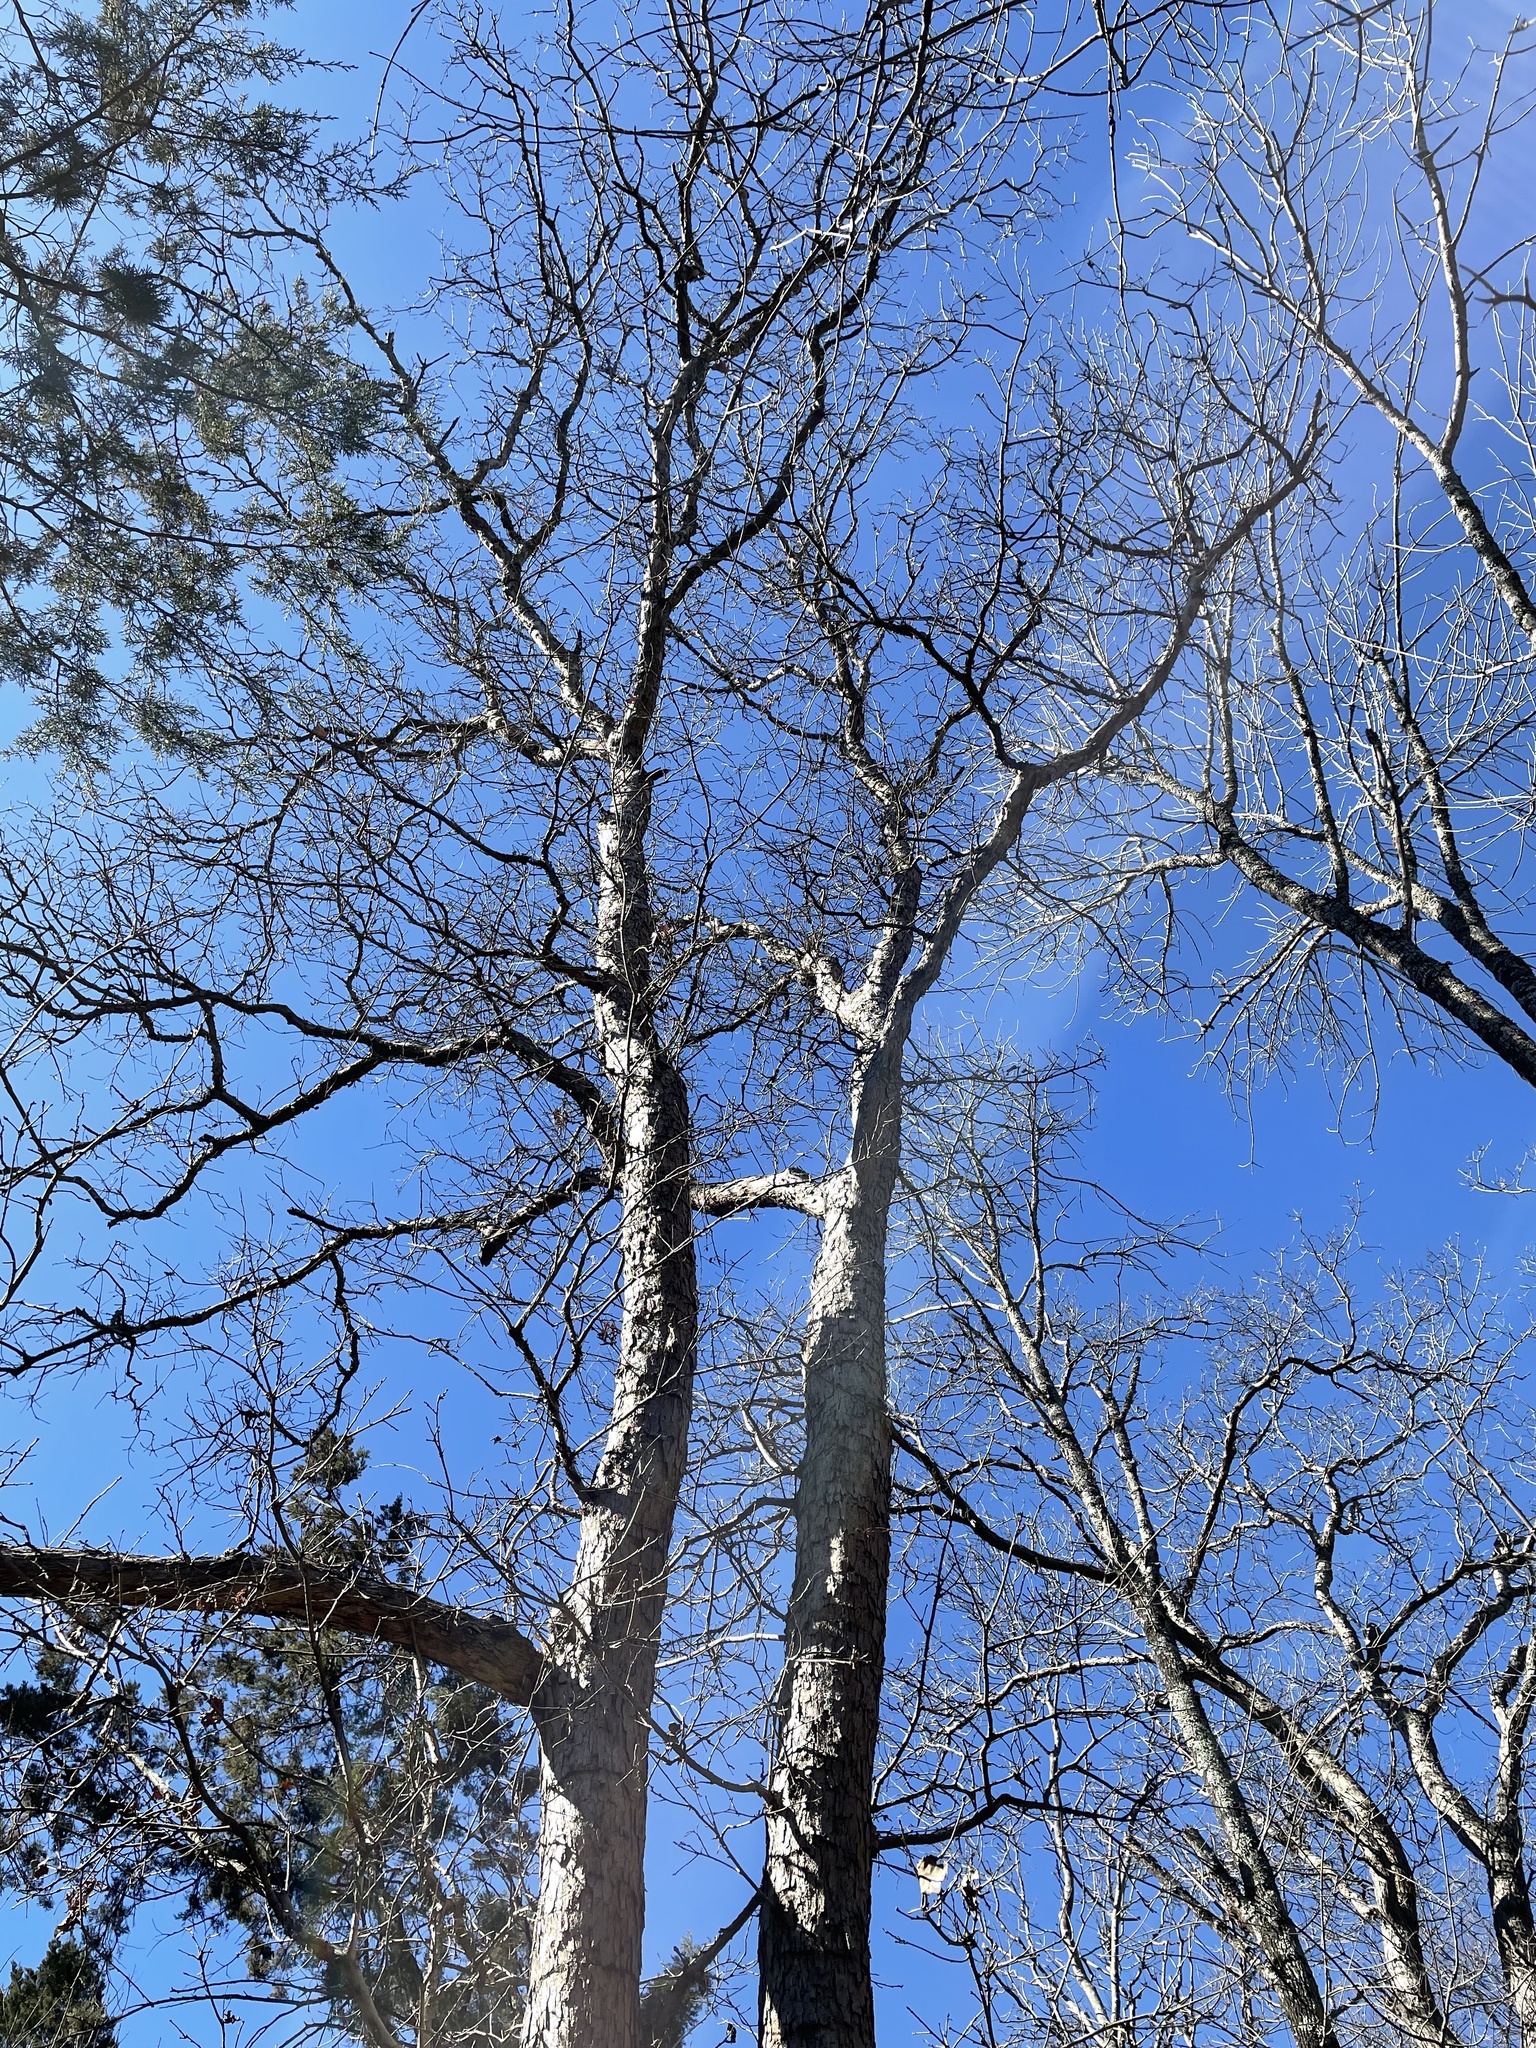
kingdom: Plantae
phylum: Tracheophyta
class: Magnoliopsida
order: Fagales
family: Fagaceae
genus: Quercus
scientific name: Quercus sinuata
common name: Durand oak
